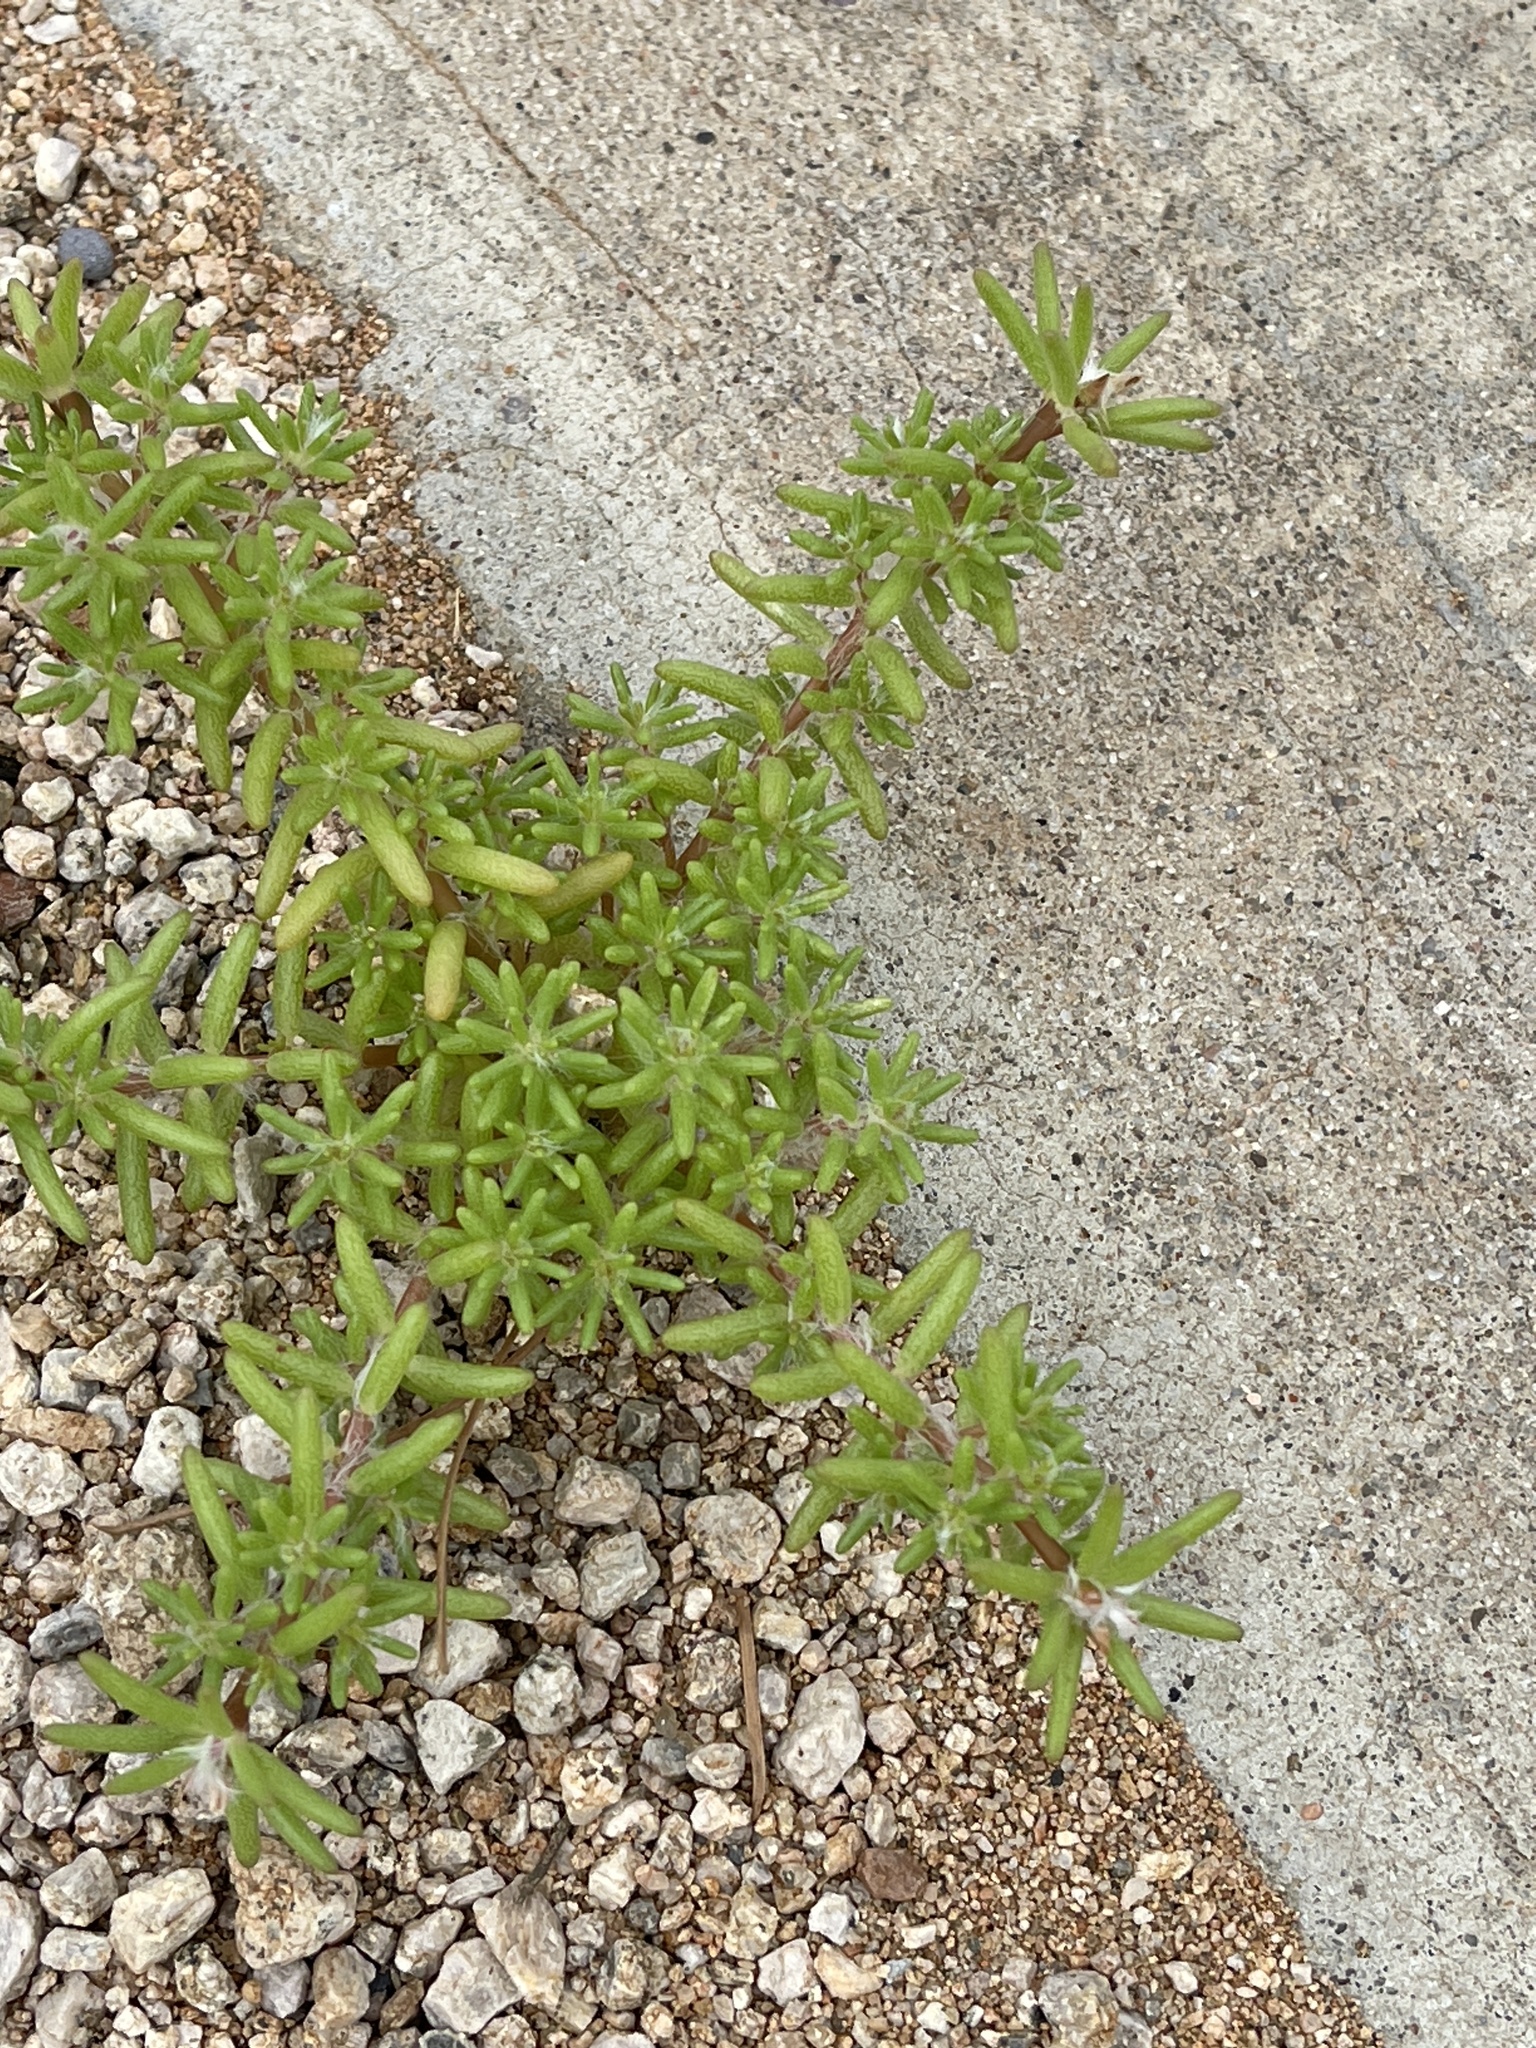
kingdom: Plantae
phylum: Tracheophyta
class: Magnoliopsida
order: Caryophyllales
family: Portulacaceae
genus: Portulaca
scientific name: Portulaca pilosa
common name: Kiss me quick
